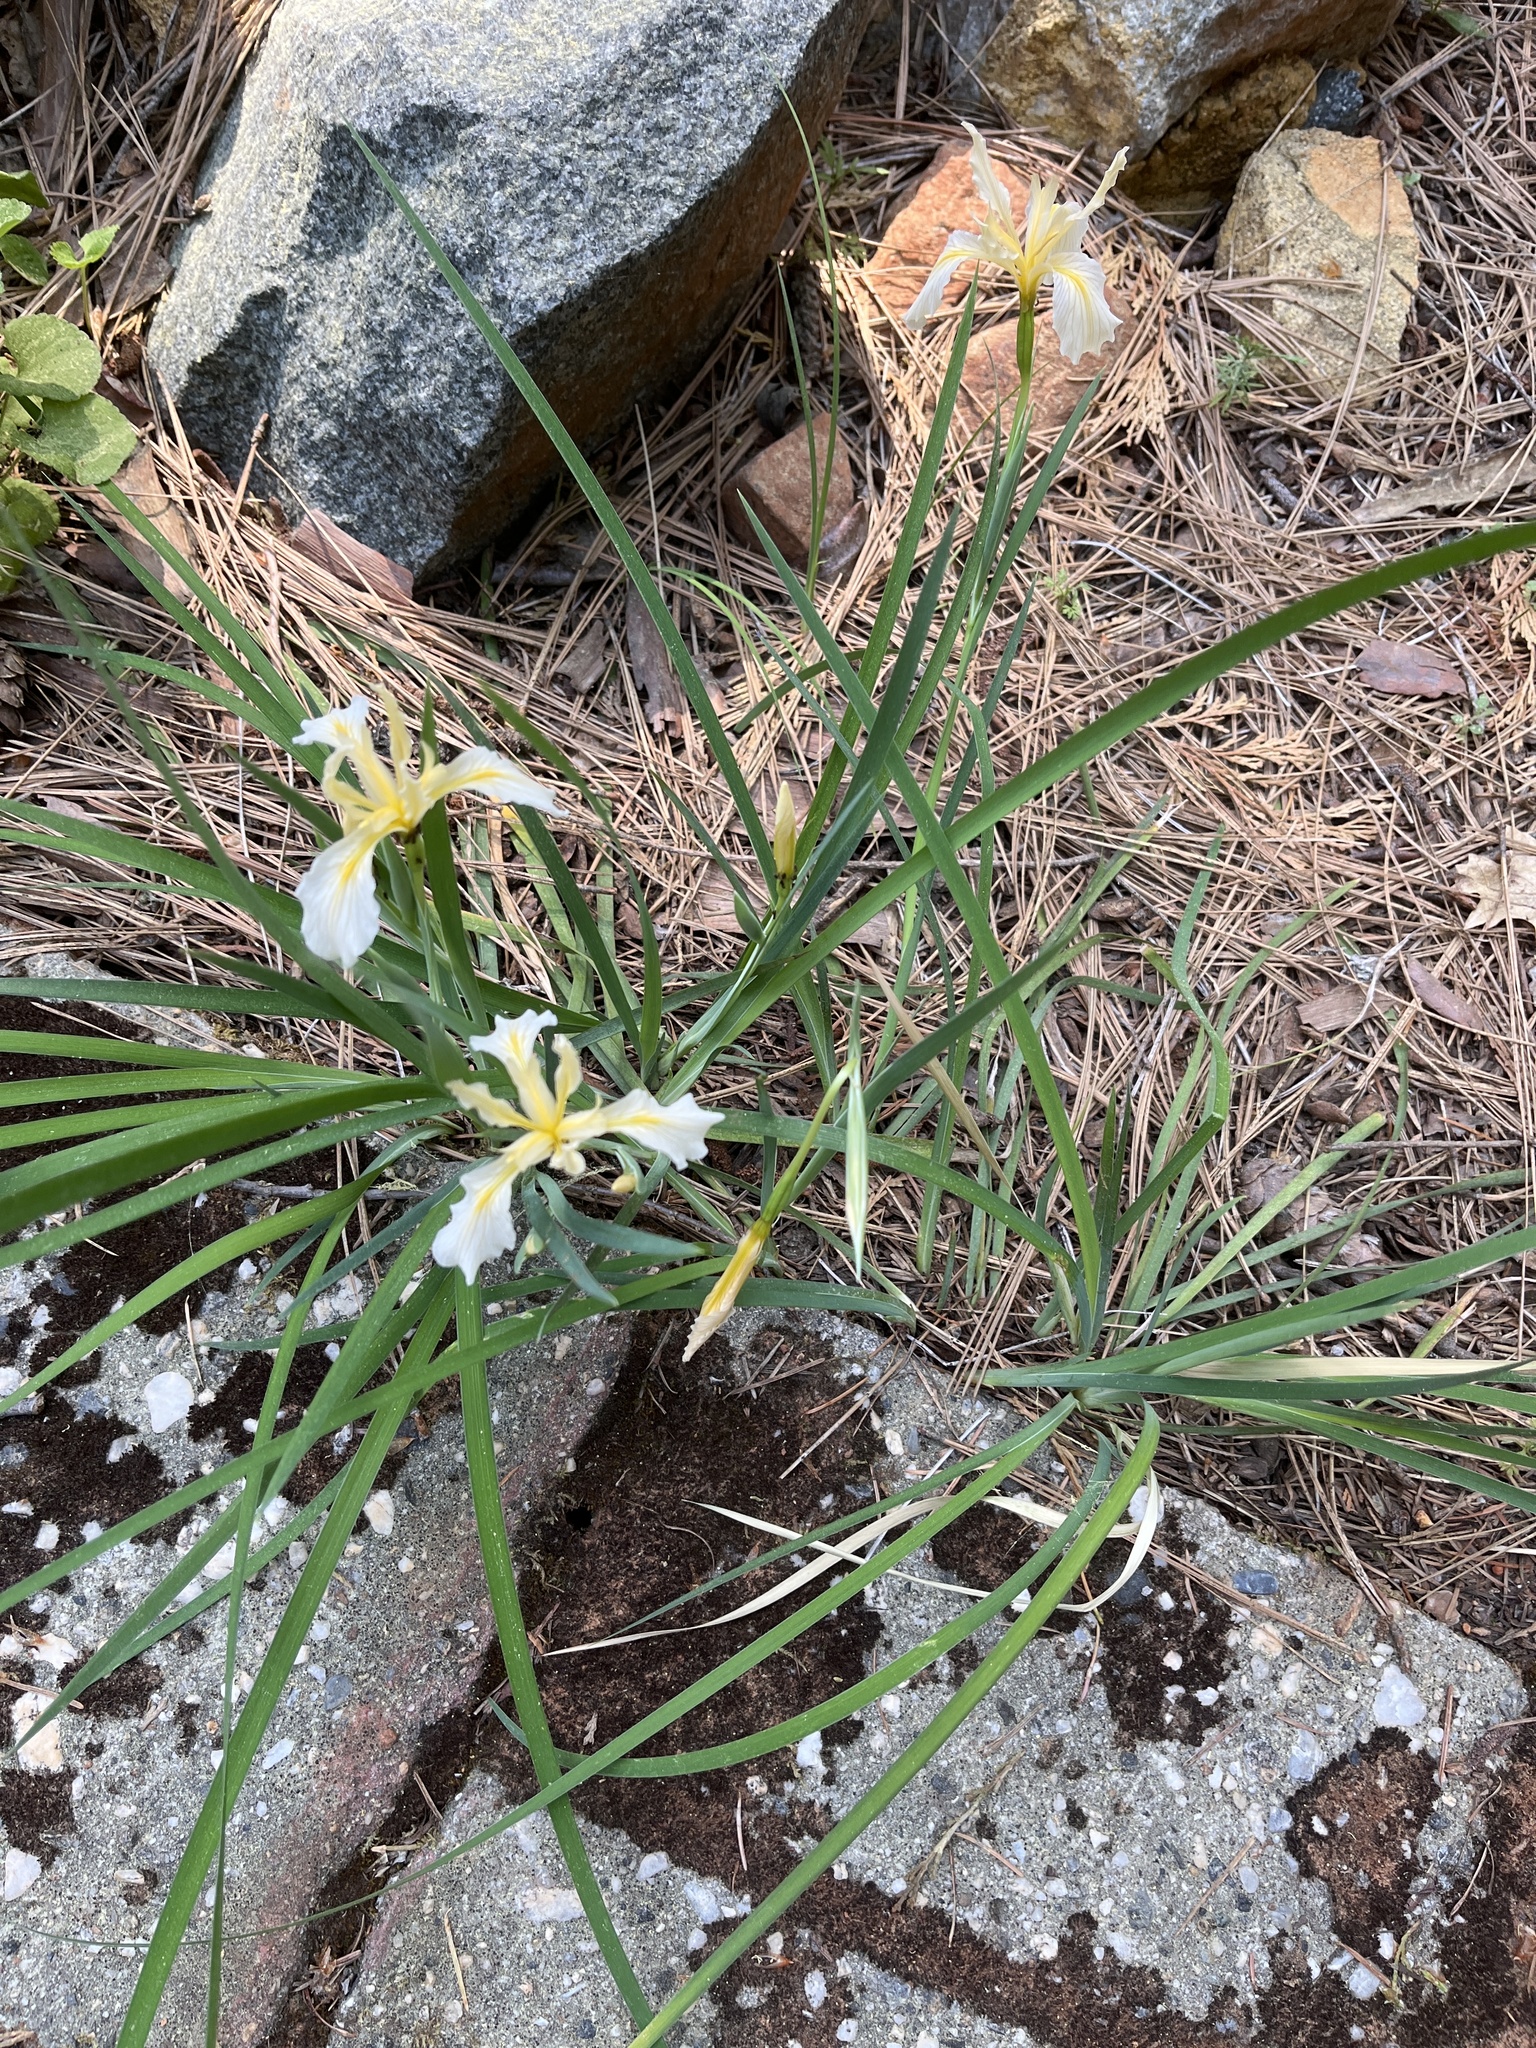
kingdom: Plantae
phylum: Tracheophyta
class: Liliopsida
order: Asparagales
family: Iridaceae
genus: Iris
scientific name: Iris hartwegii
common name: Sierra iris
